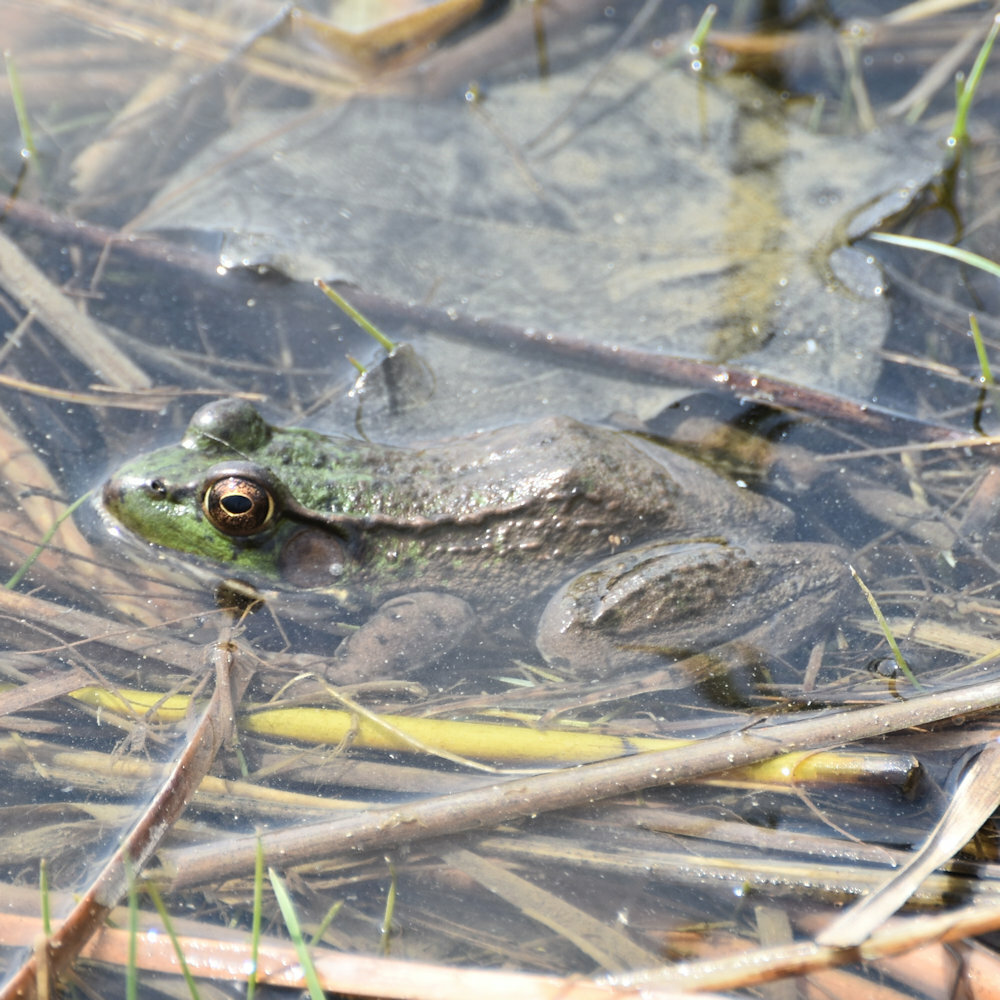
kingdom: Animalia
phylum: Chordata
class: Amphibia
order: Anura
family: Ranidae
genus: Lithobates
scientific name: Lithobates clamitans
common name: Green frog
